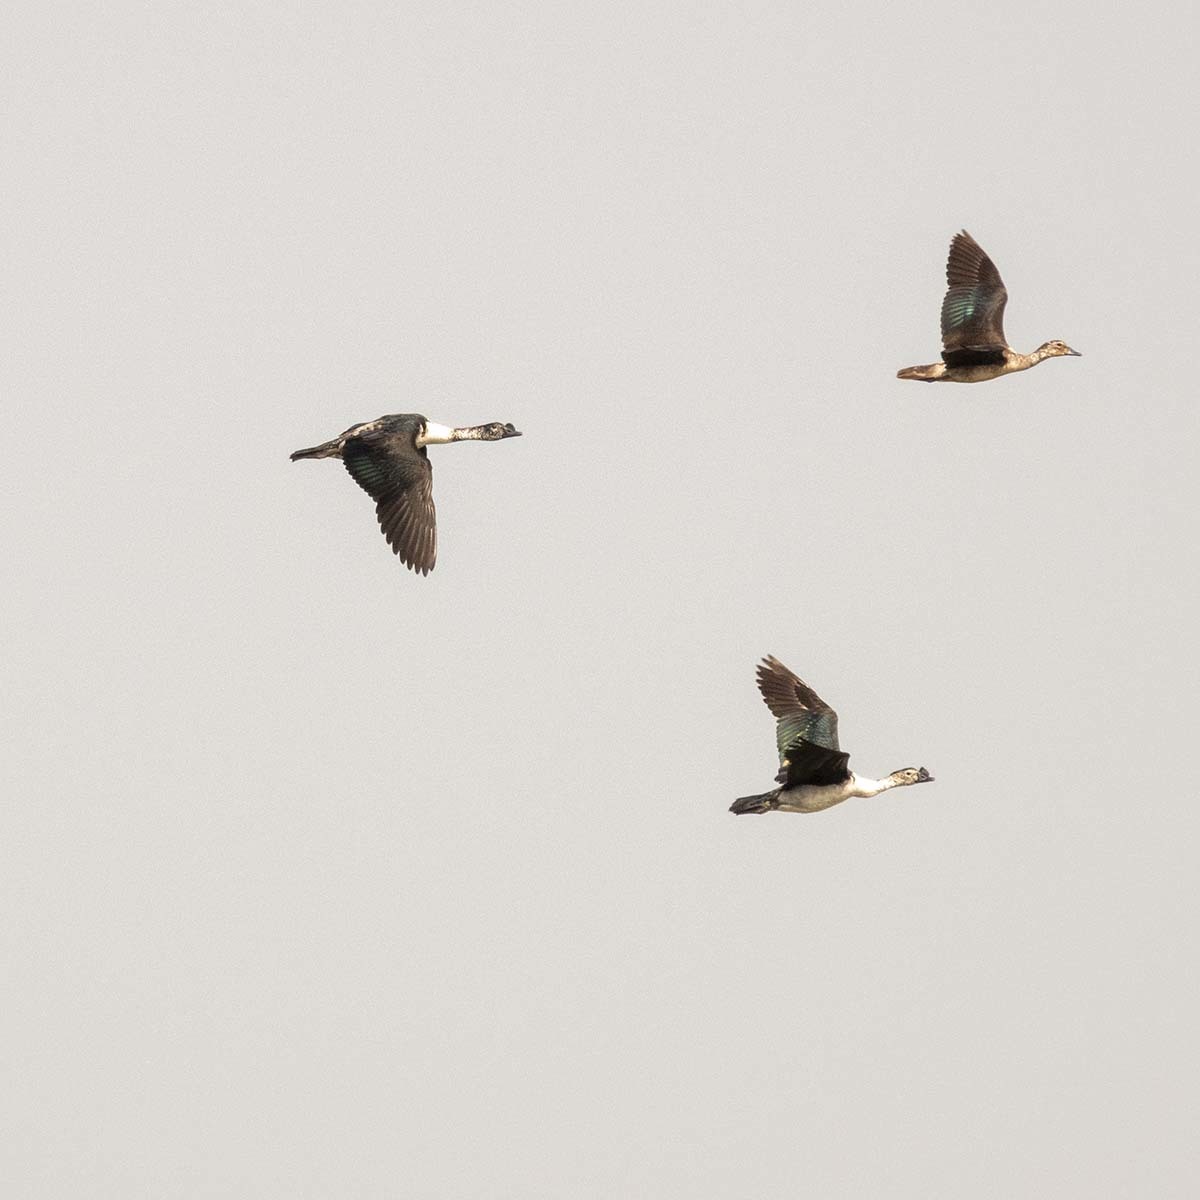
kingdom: Animalia
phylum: Chordata
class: Aves
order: Anseriformes
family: Anatidae
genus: Sarkidiornis
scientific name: Sarkidiornis melanotos
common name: Comb duck
